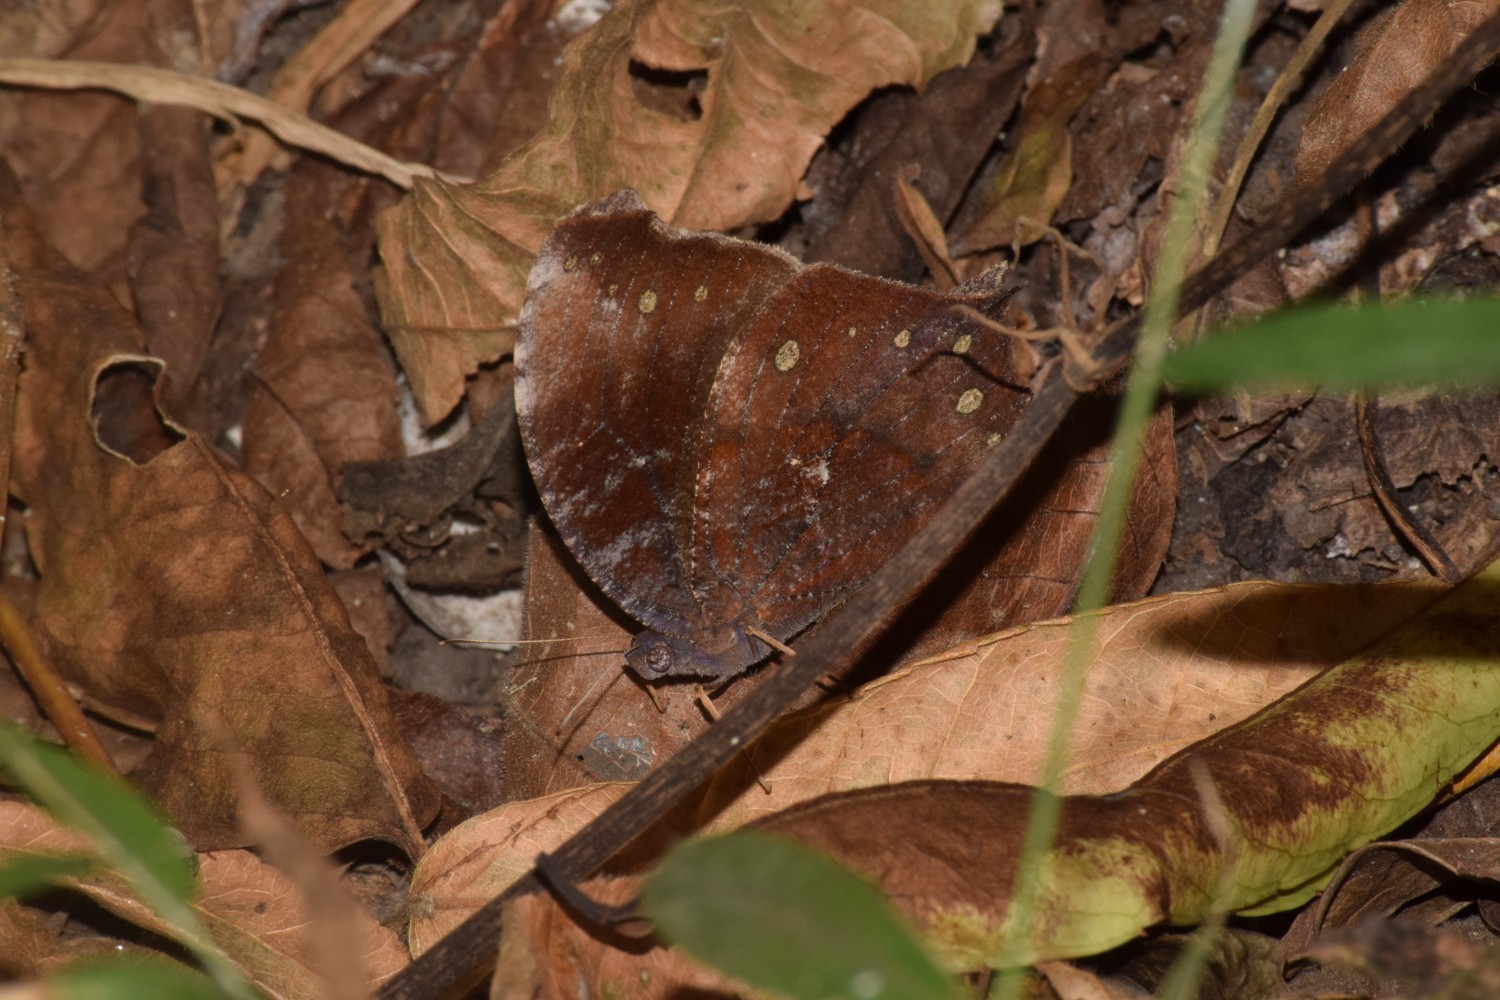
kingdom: Animalia
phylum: Arthropoda
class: Insecta
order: Lepidoptera
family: Nymphalidae
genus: Melanitis
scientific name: Melanitis phedima
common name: Dark evening brown
